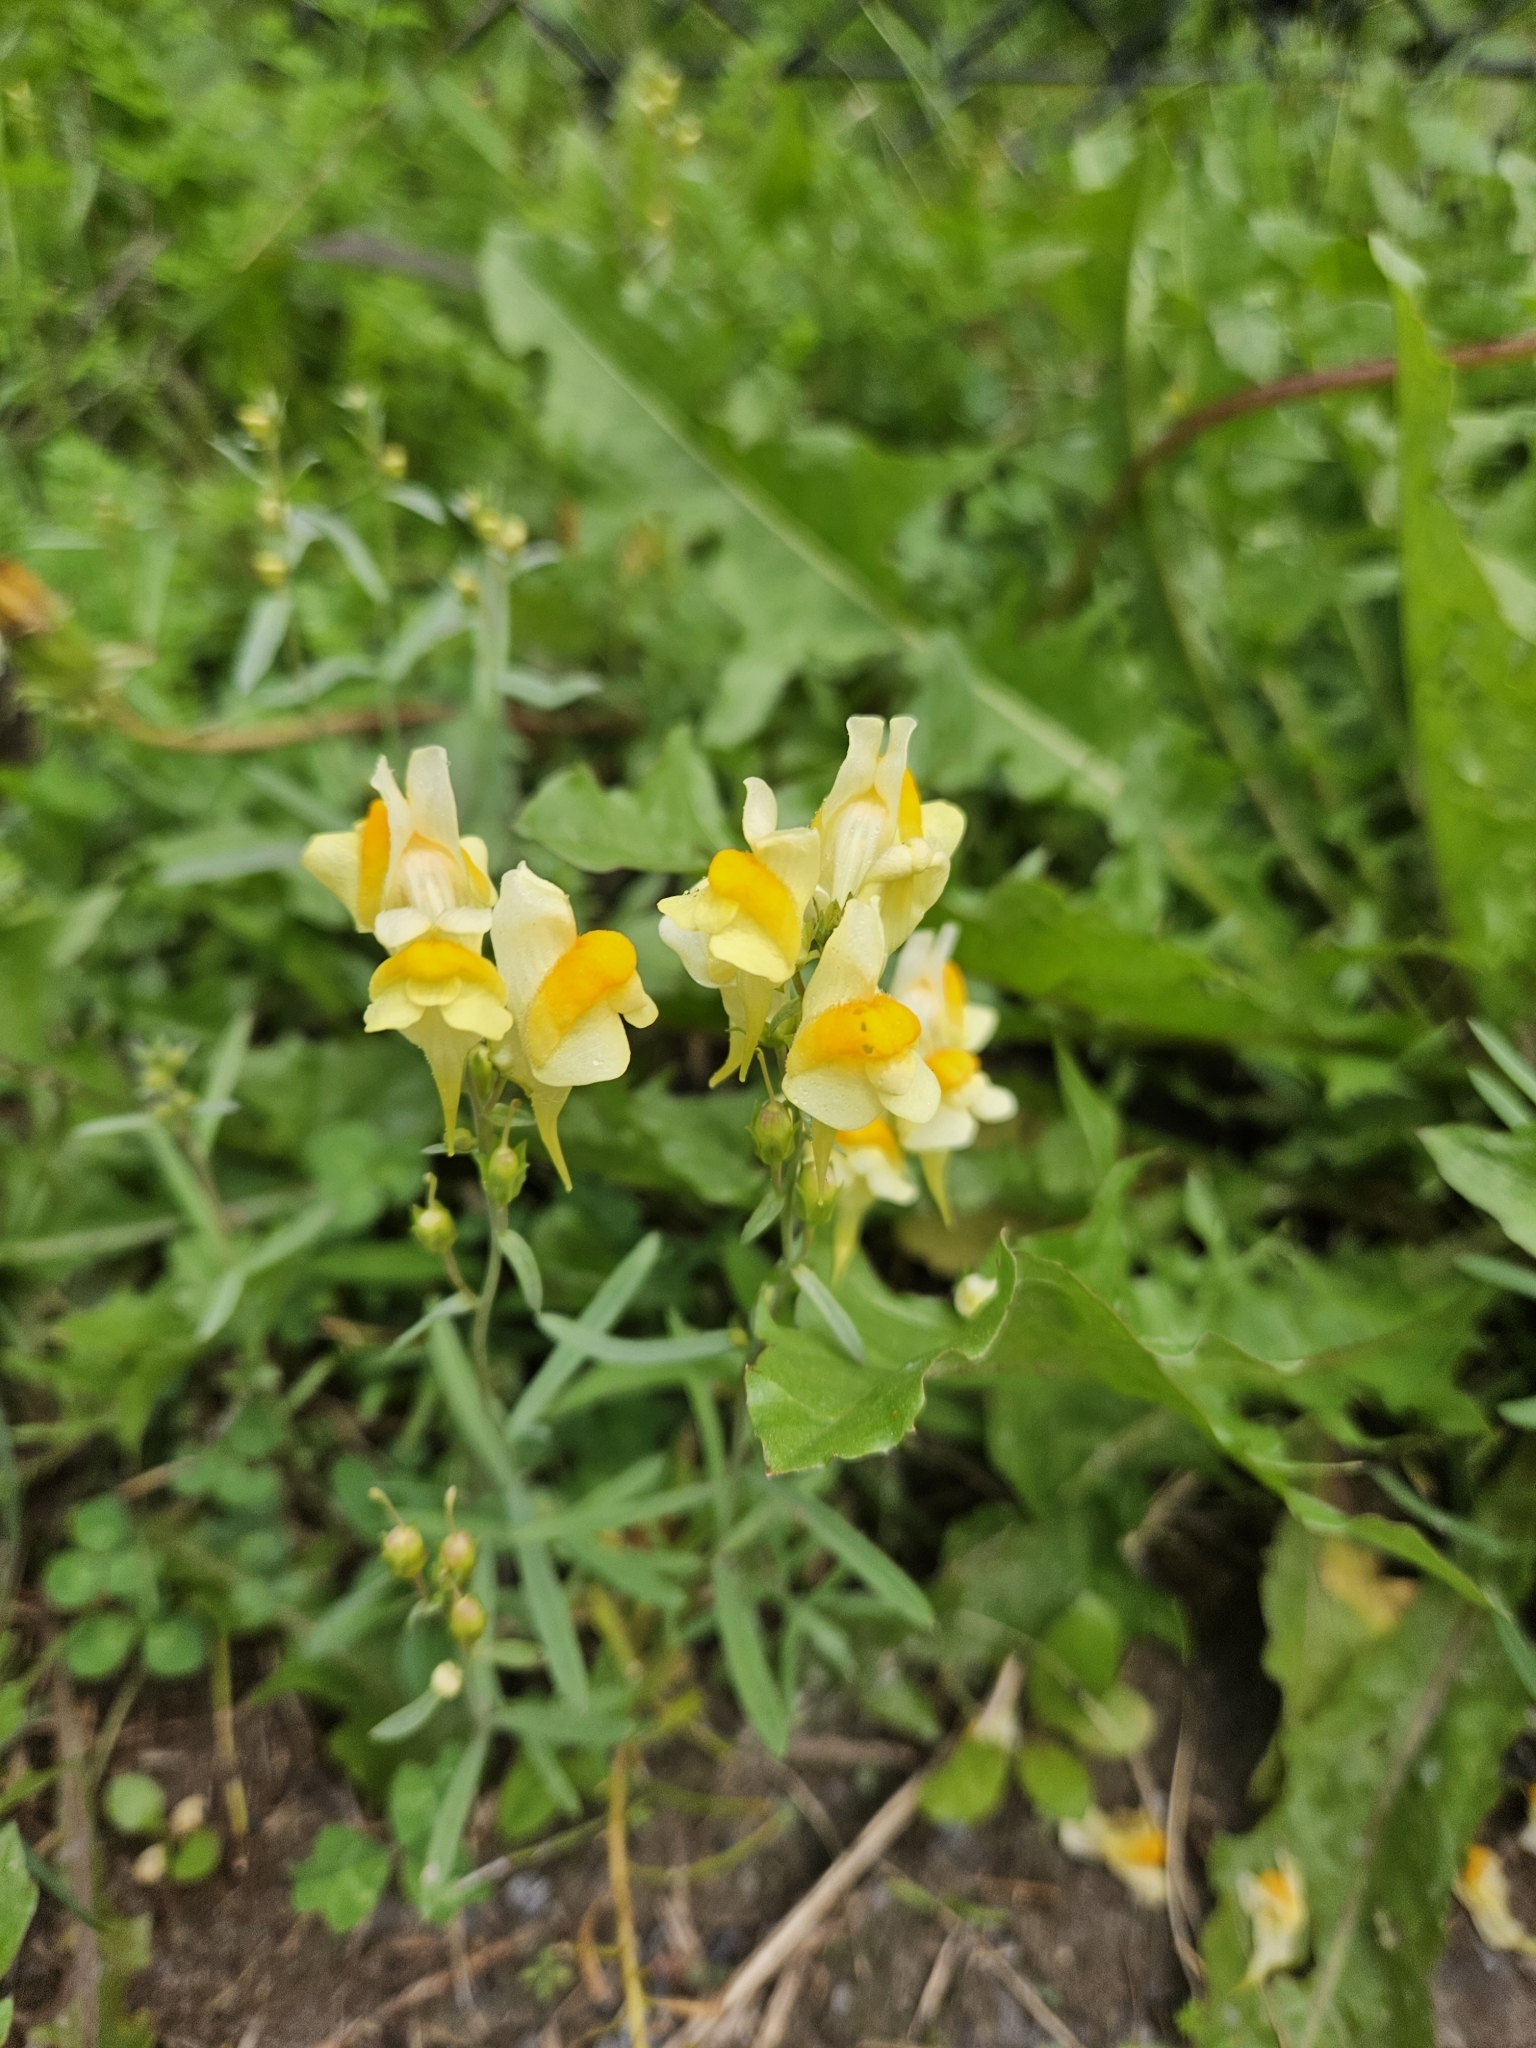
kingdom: Plantae
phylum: Tracheophyta
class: Magnoliopsida
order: Lamiales
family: Plantaginaceae
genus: Linaria
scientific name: Linaria vulgaris
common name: Butter and eggs
